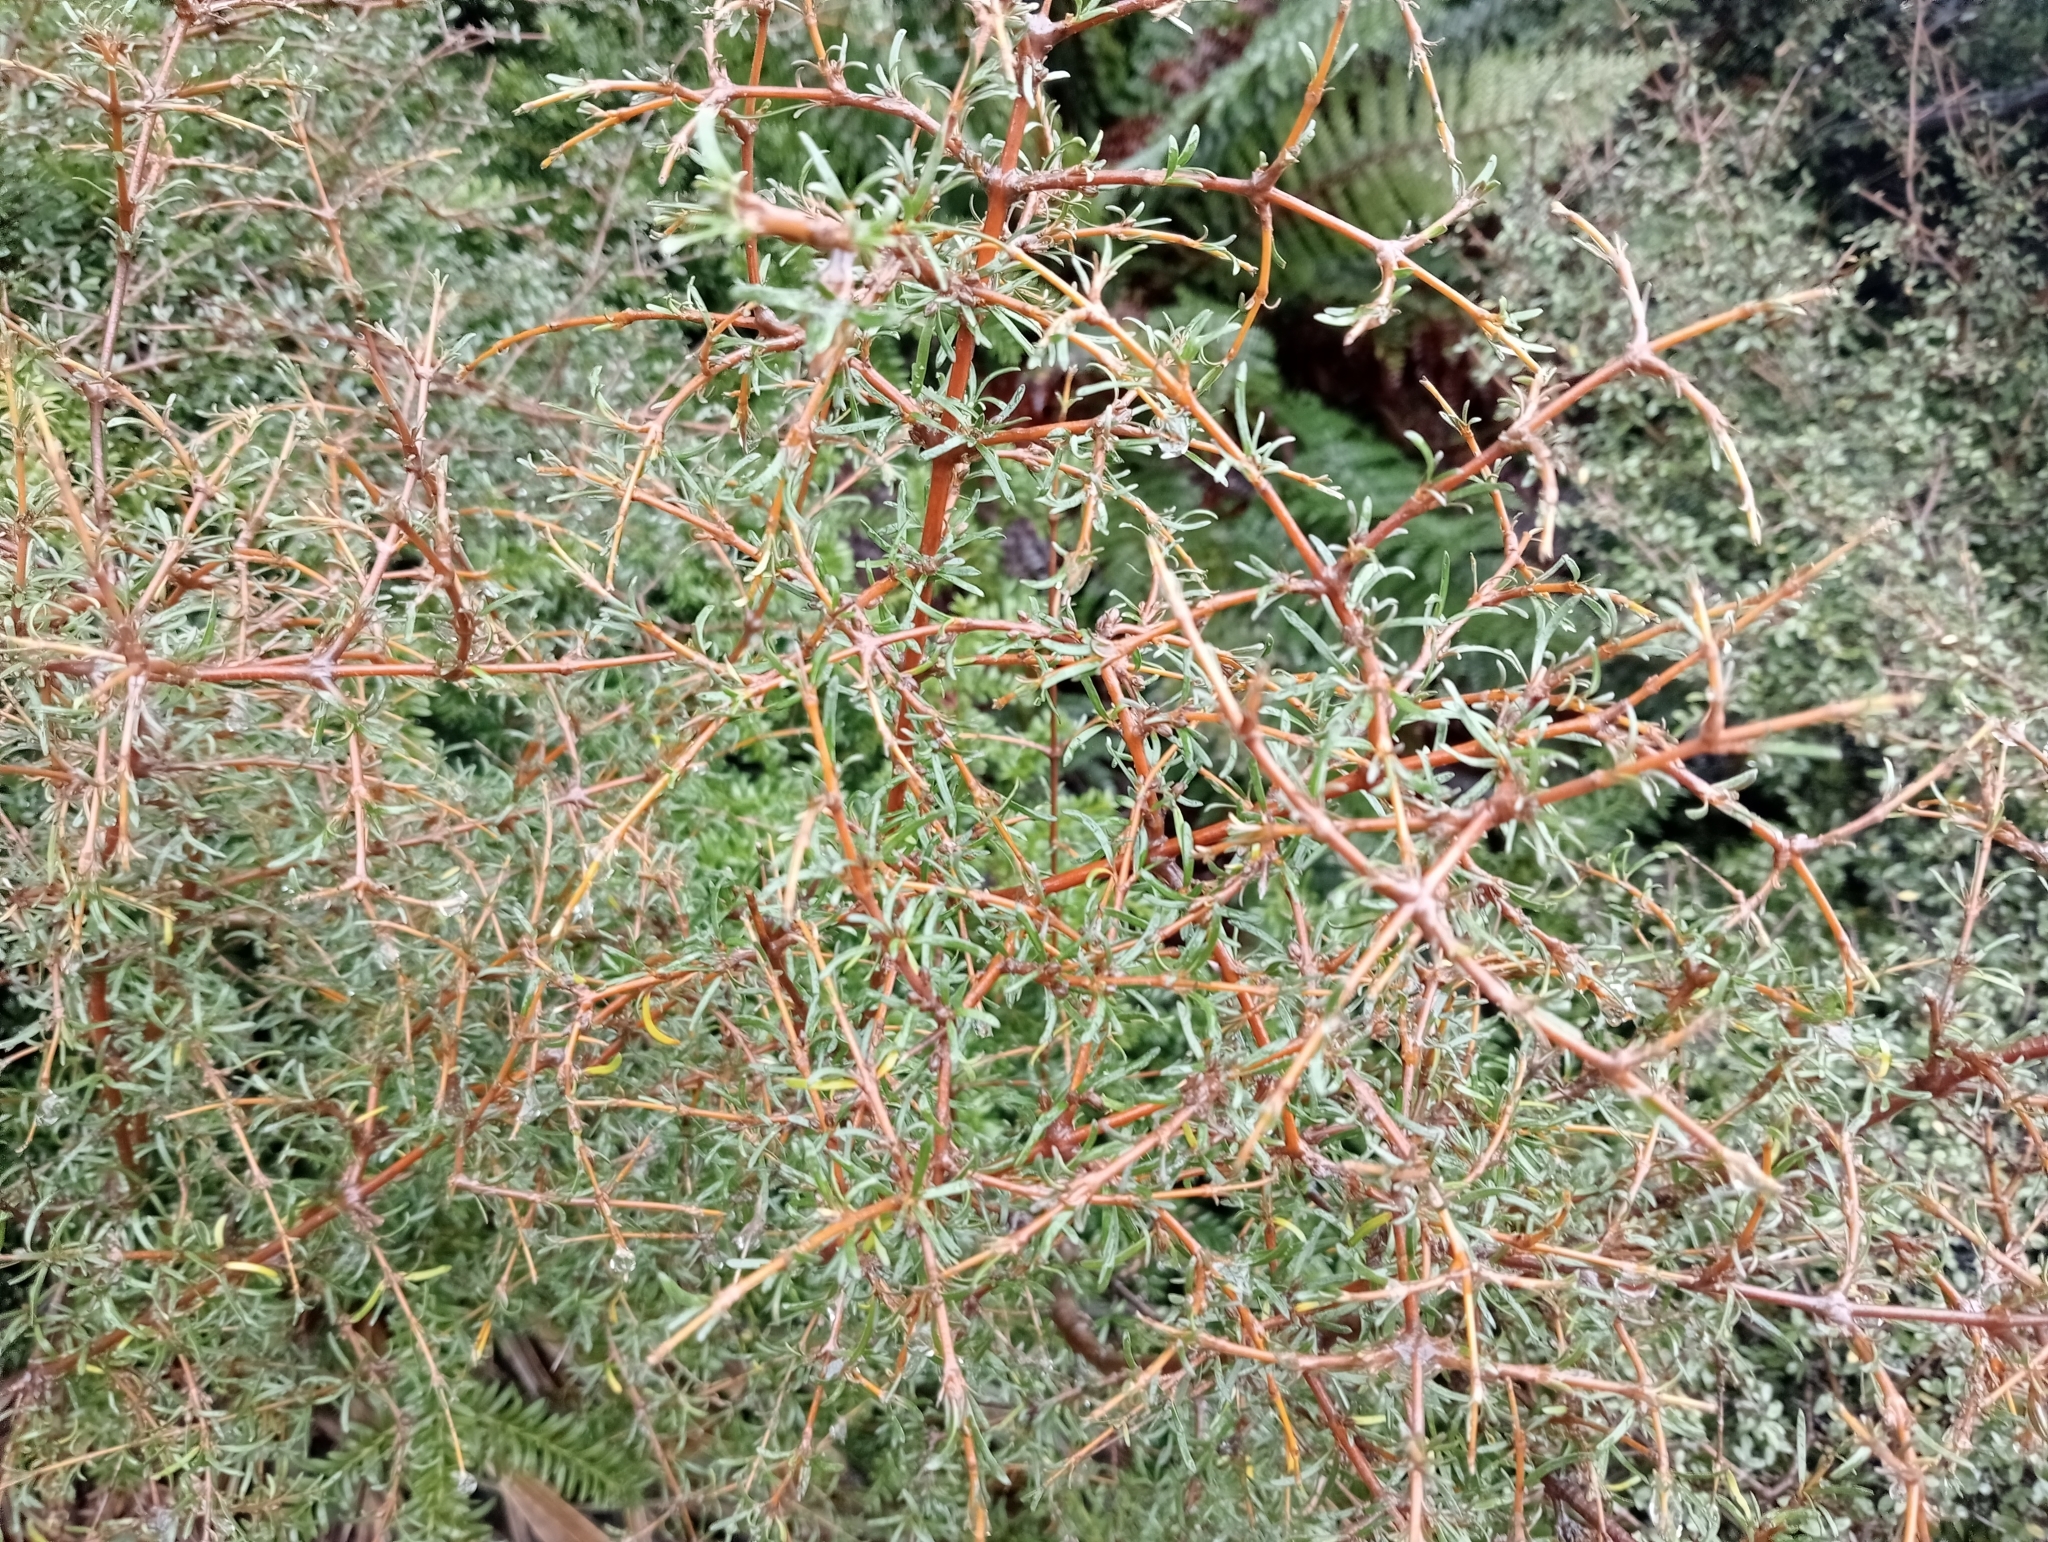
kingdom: Plantae
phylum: Tracheophyta
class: Magnoliopsida
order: Gentianales
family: Rubiaceae
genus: Coprosma
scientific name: Coprosma rugosa
